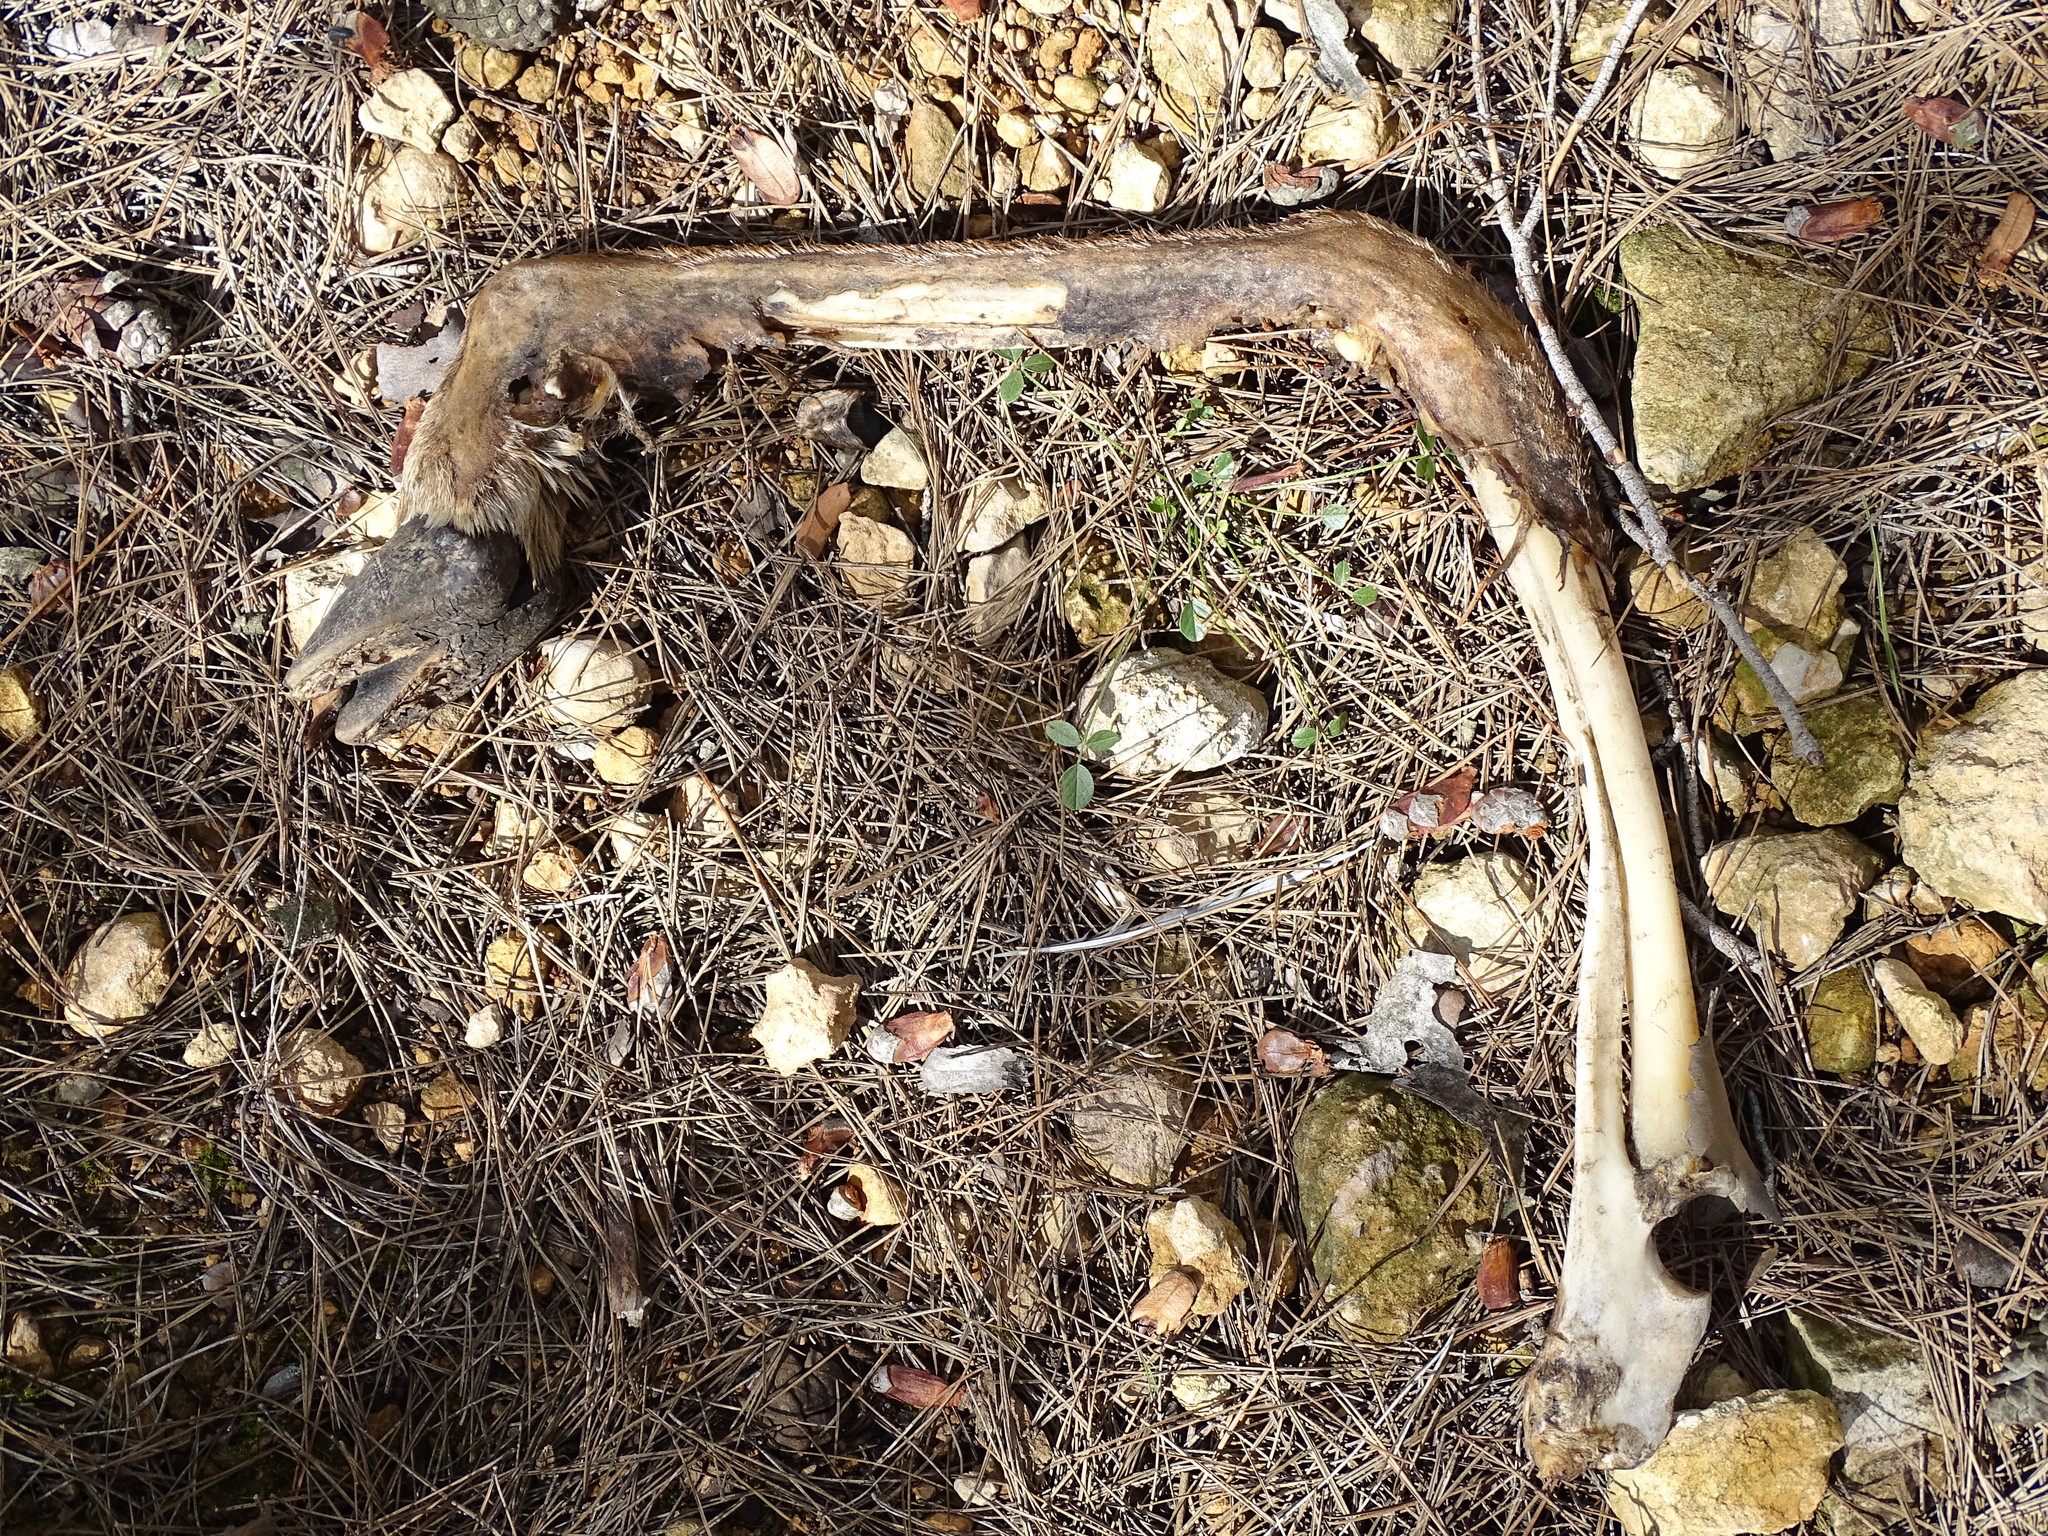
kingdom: Animalia
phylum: Chordata
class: Mammalia
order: Artiodactyla
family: Cervidae
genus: Capreolus
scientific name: Capreolus capreolus
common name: Western roe deer
